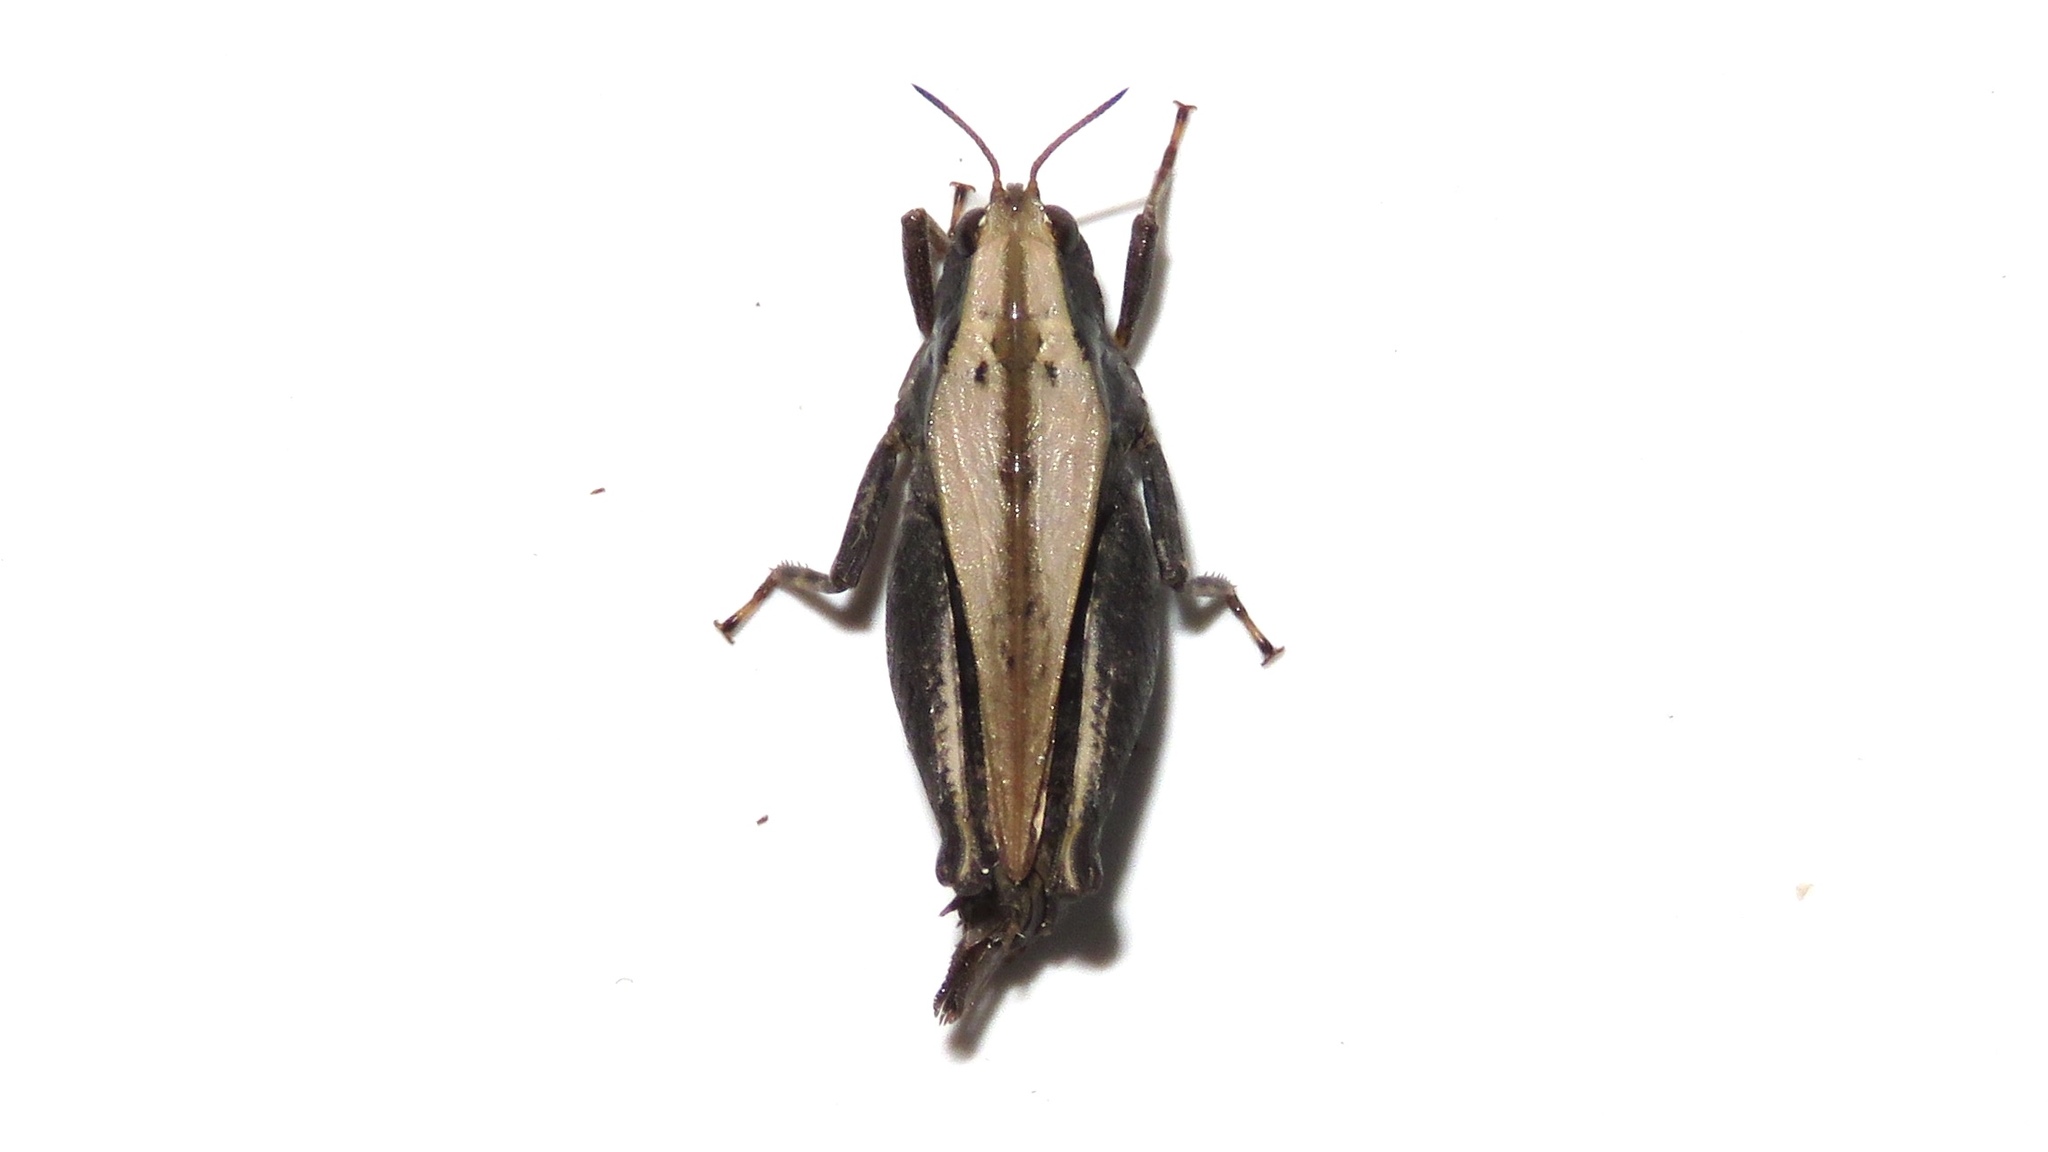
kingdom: Animalia
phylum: Arthropoda
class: Insecta
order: Orthoptera
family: Tetrigidae
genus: Tettigidea
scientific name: Tettigidea laterale
